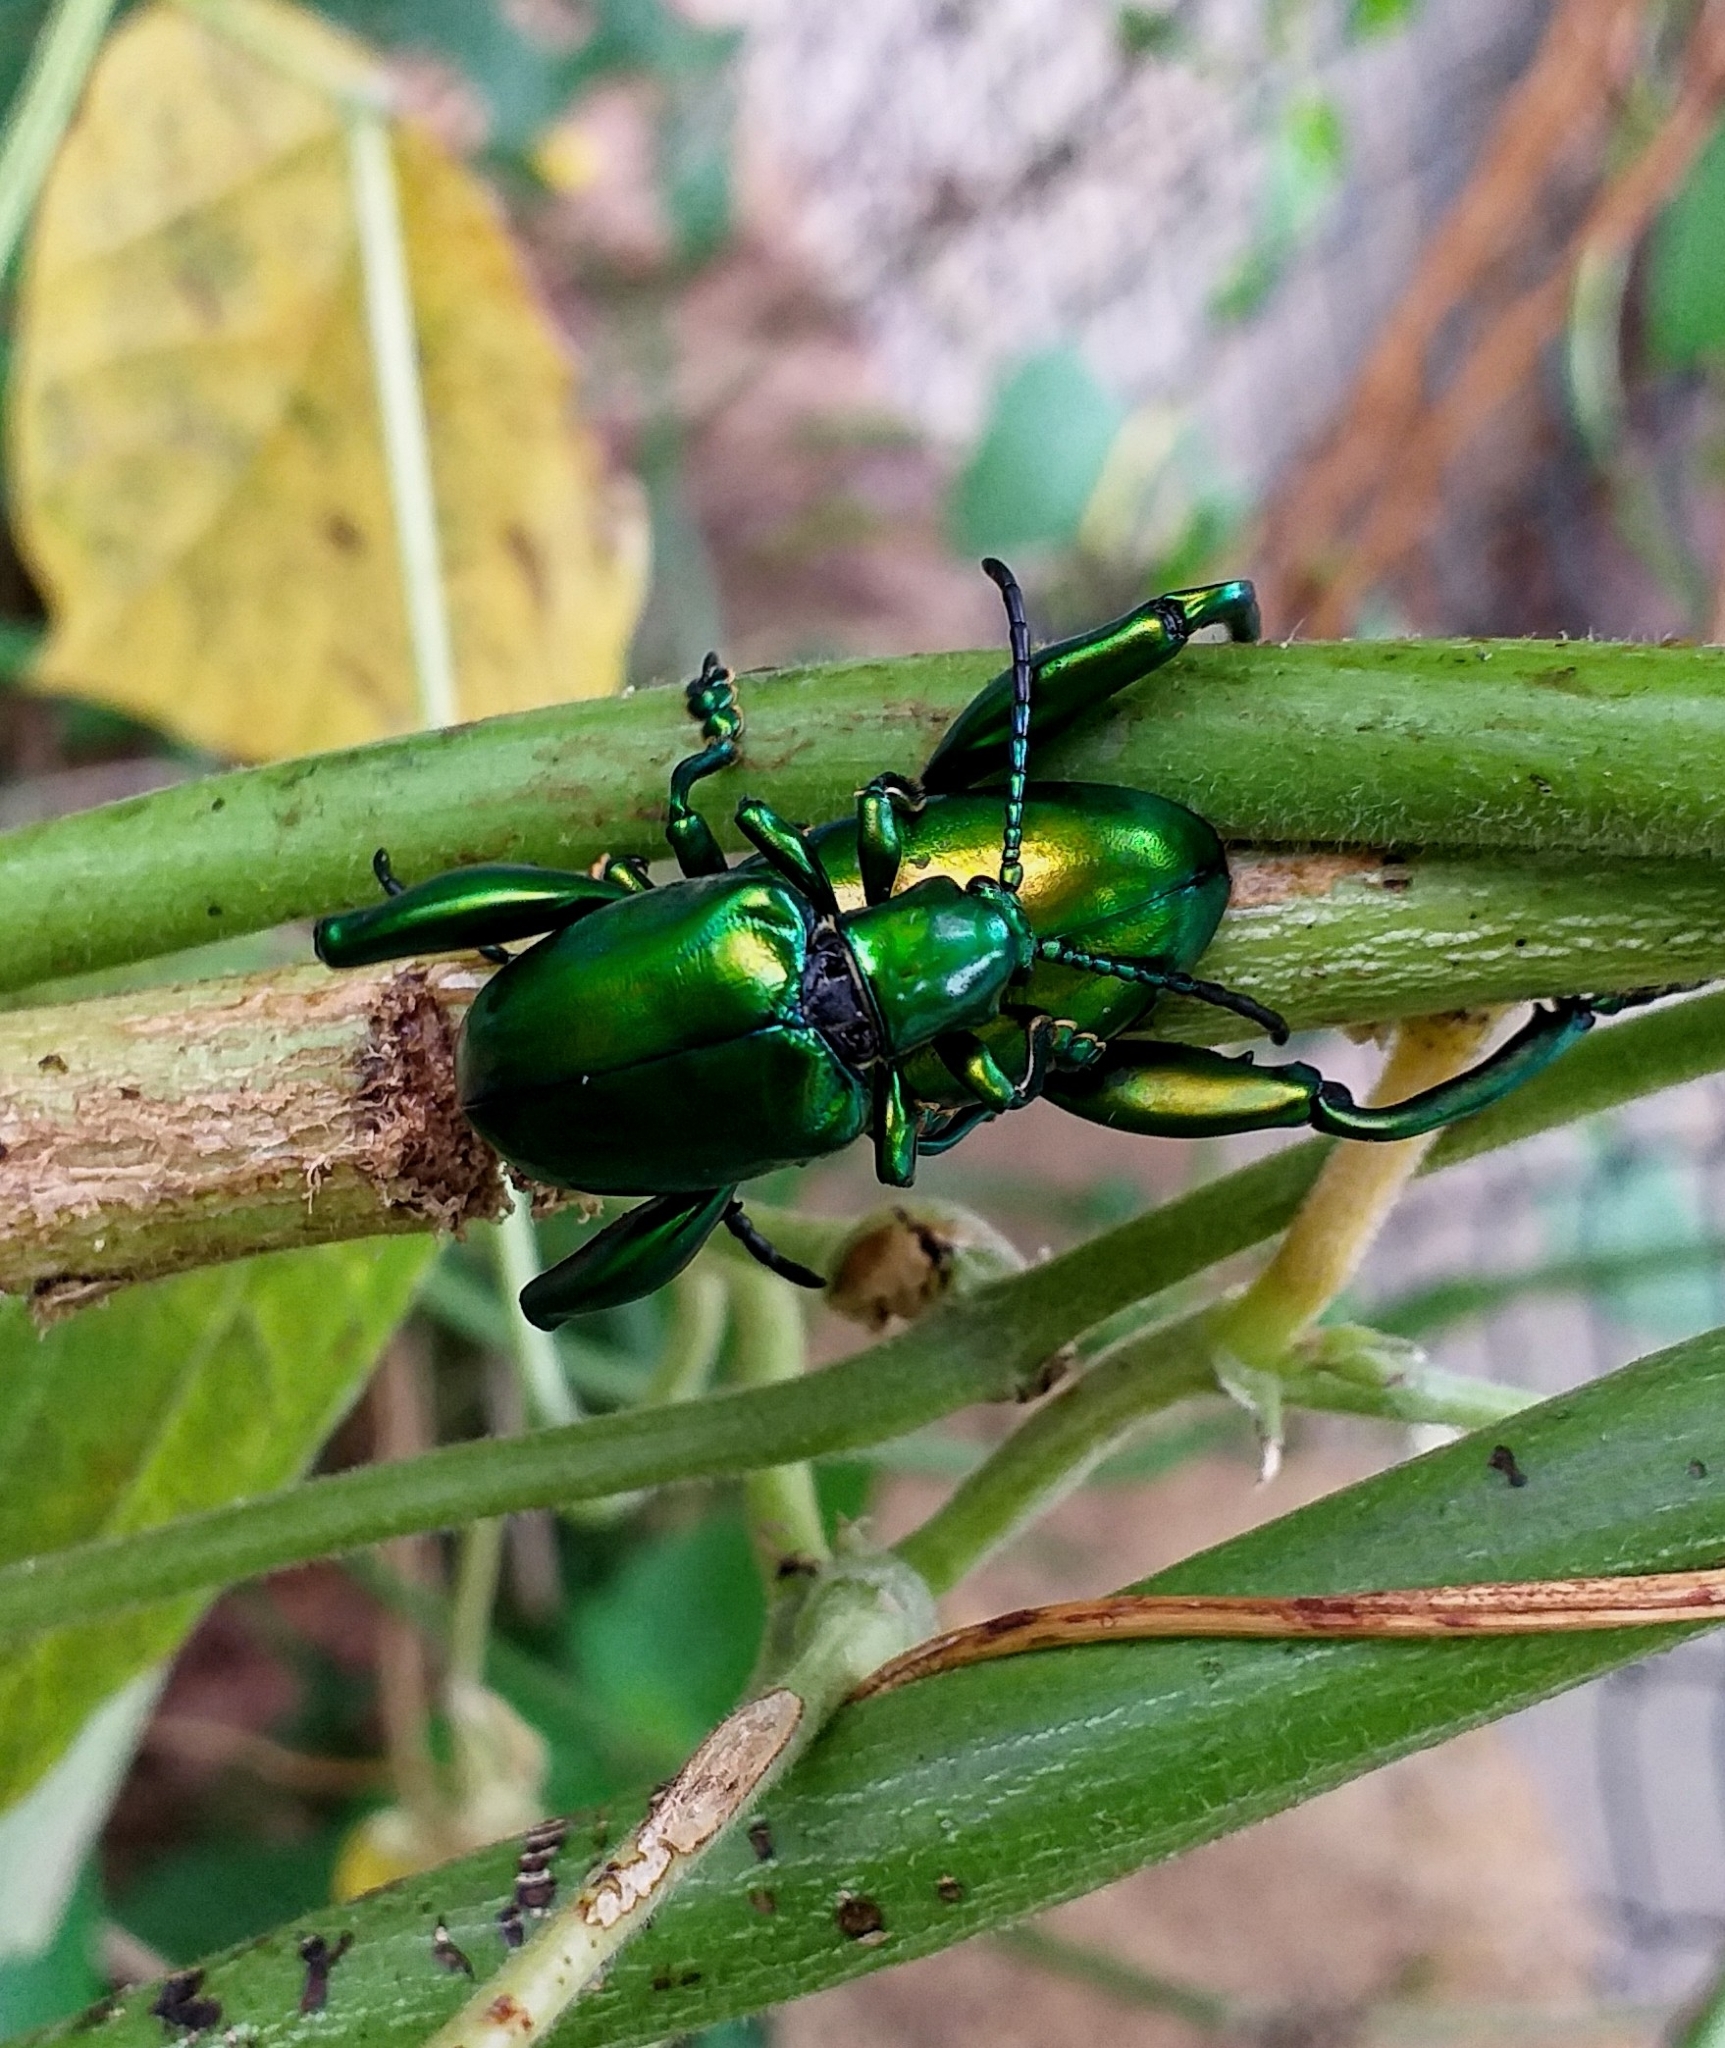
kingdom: Animalia
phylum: Arthropoda
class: Insecta
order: Coleoptera
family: Chrysomelidae
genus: Sagra
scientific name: Sagra femorata
